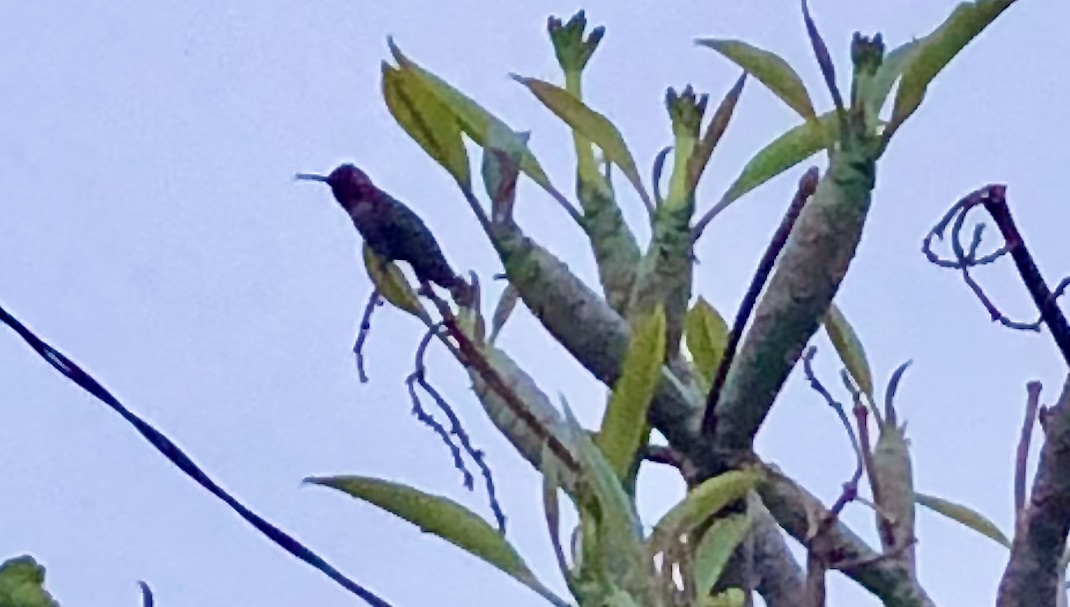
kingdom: Animalia
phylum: Chordata
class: Aves
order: Apodiformes
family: Trochilidae
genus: Calypte
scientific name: Calypte anna
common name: Anna's hummingbird
